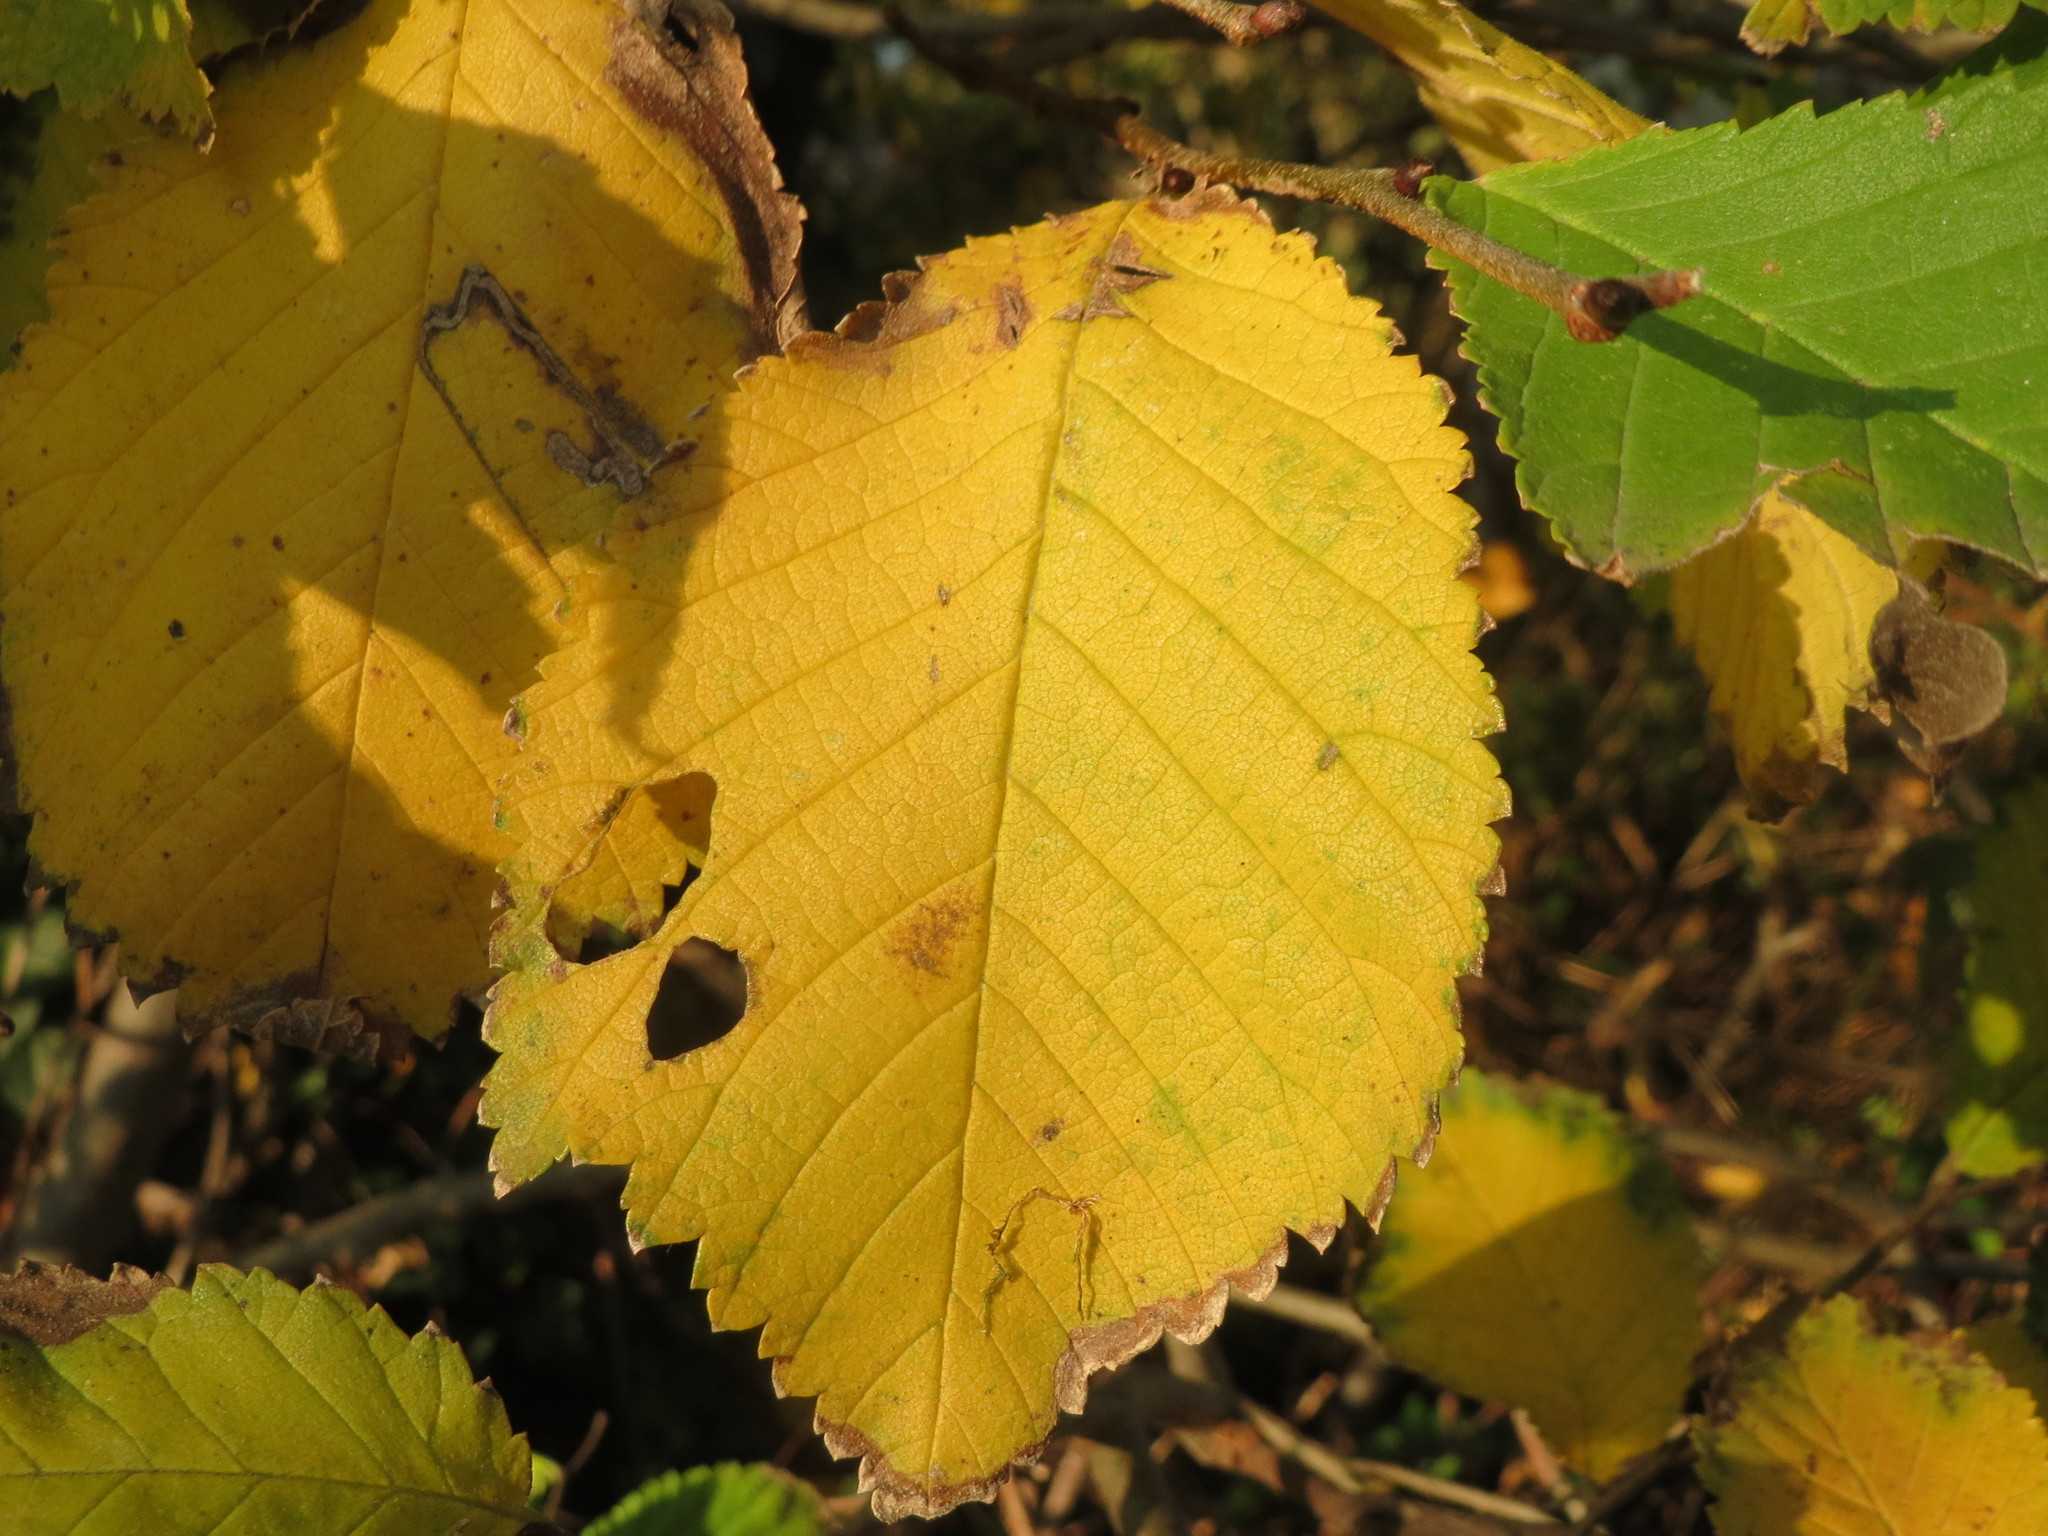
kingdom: Plantae
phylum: Tracheophyta
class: Magnoliopsida
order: Rosales
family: Ulmaceae
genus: Ulmus
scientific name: Ulmus glabra
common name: Wych elm
